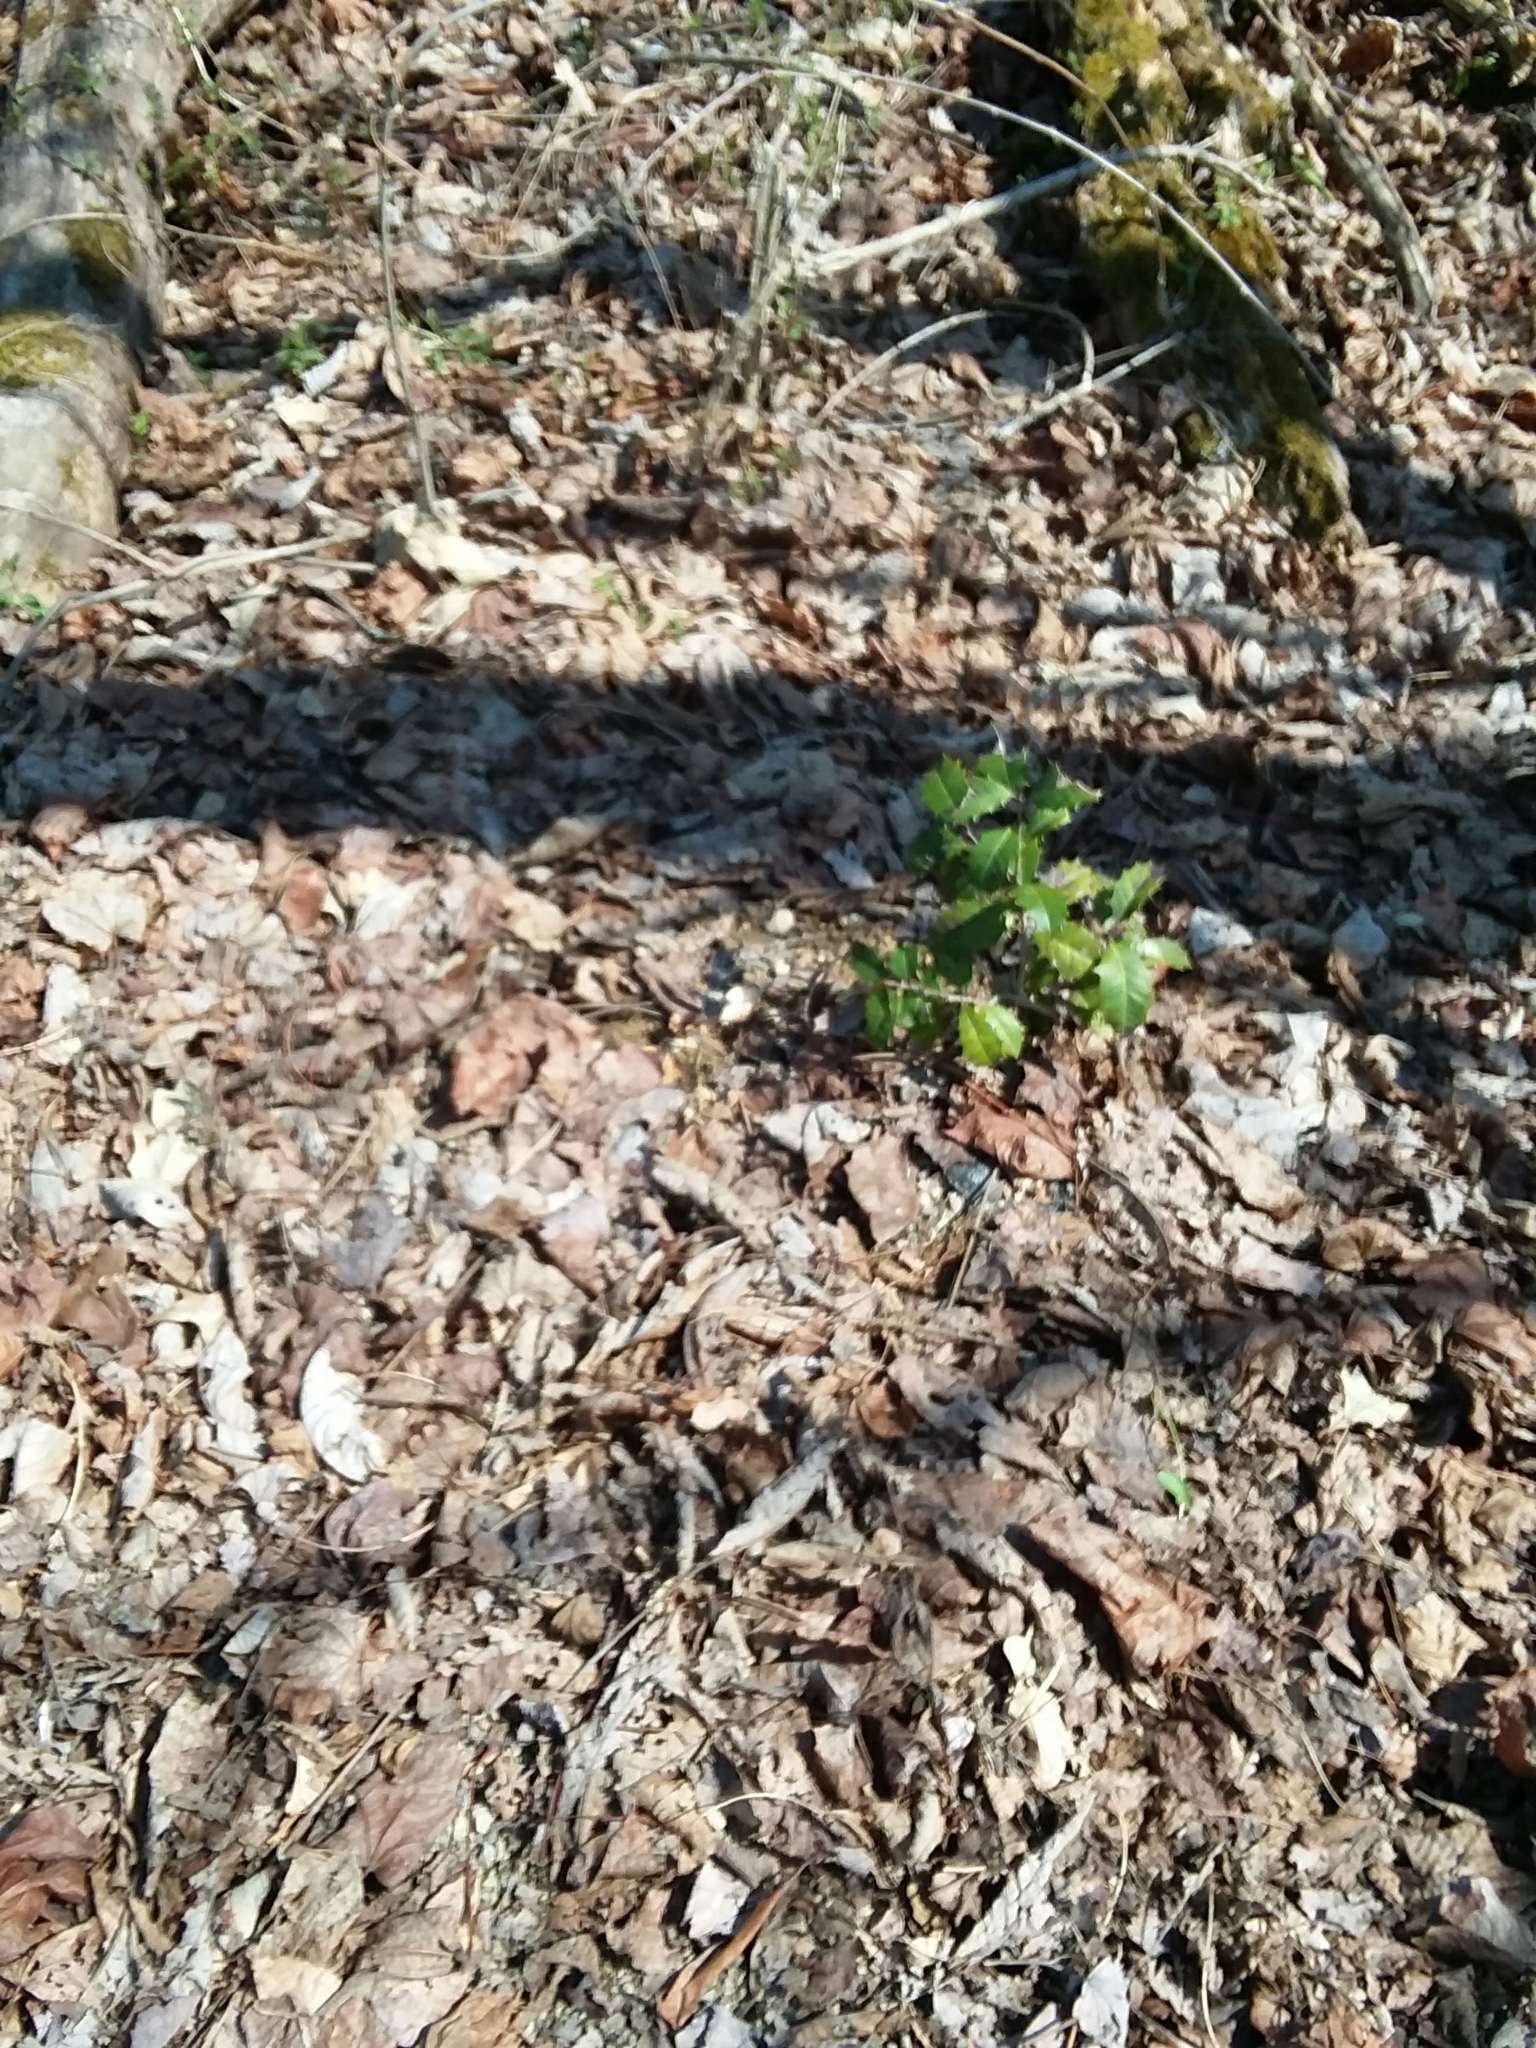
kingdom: Plantae
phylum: Tracheophyta
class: Magnoliopsida
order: Aquifoliales
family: Aquifoliaceae
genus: Ilex
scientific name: Ilex opaca
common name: American holly
